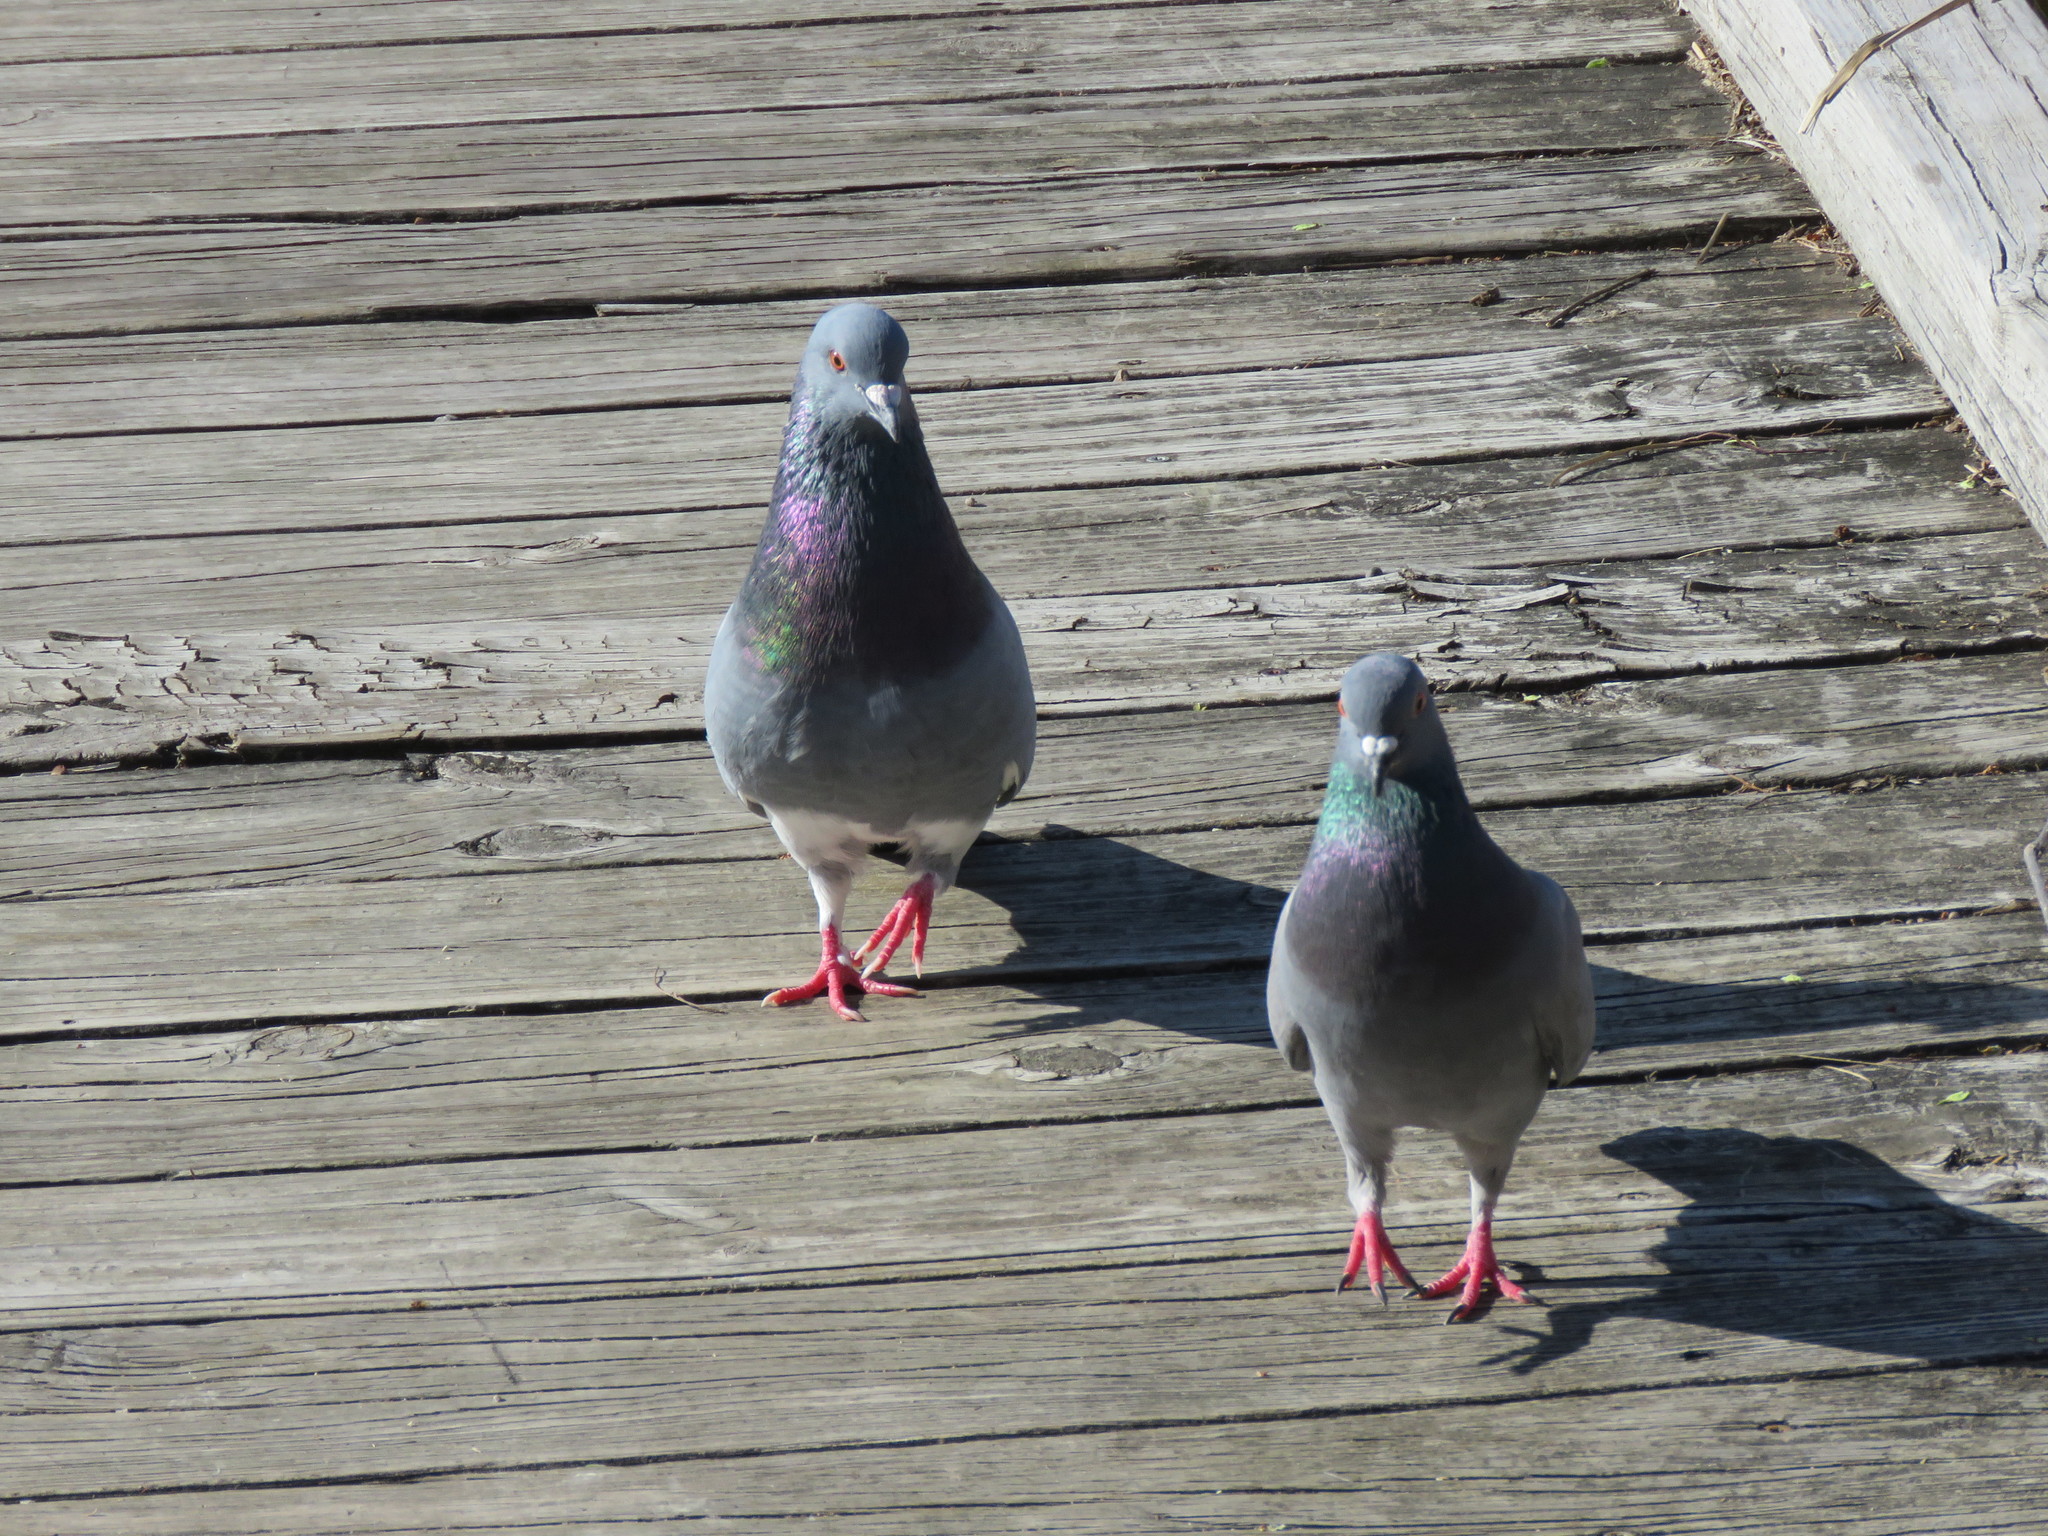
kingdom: Animalia
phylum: Chordata
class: Aves
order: Columbiformes
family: Columbidae
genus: Columba
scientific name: Columba livia
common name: Rock pigeon
